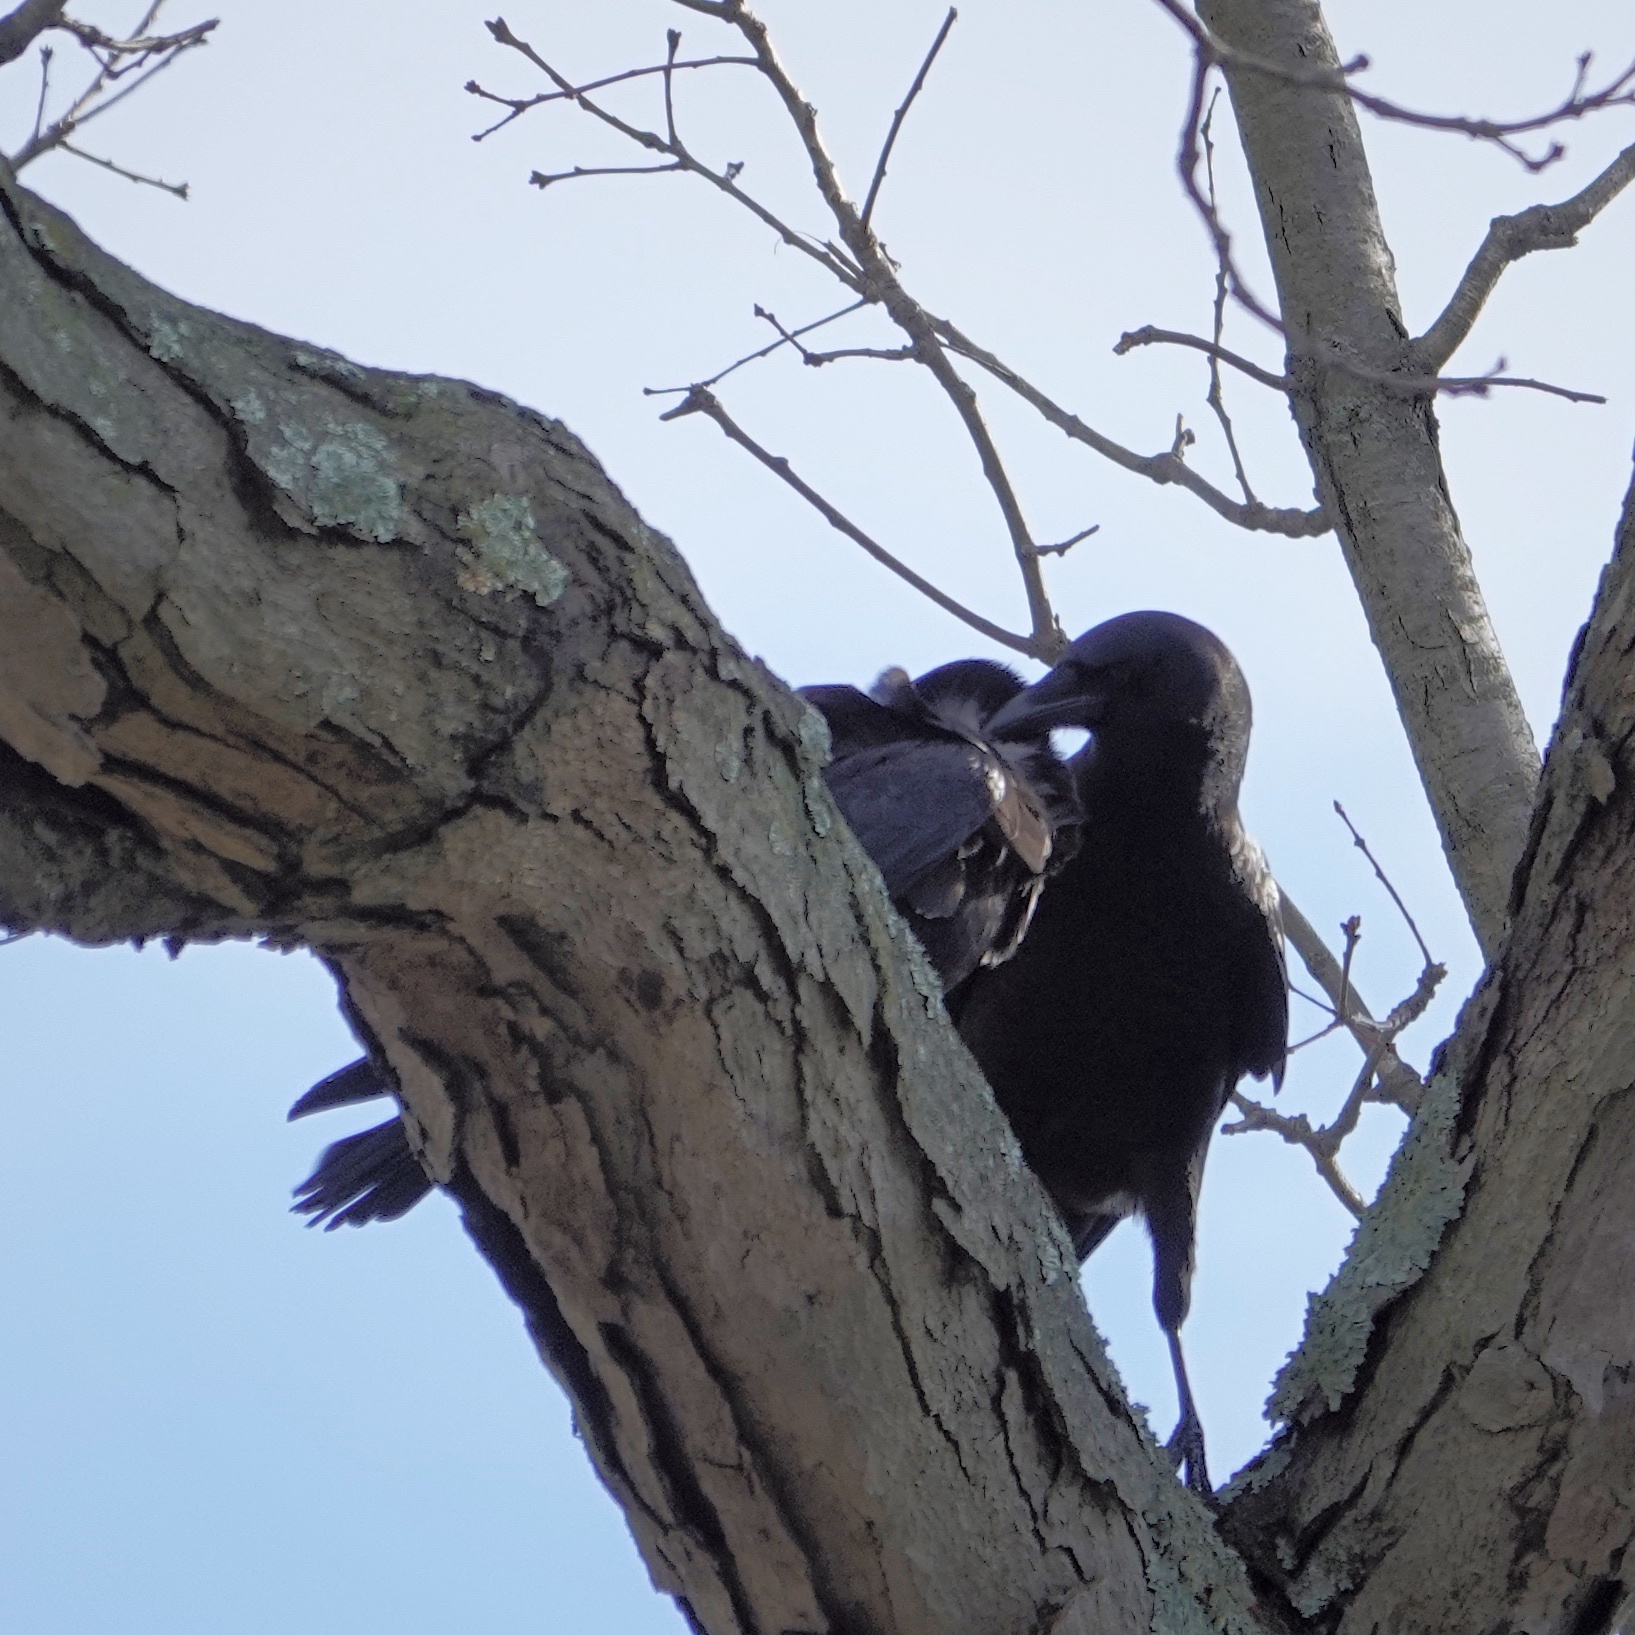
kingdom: Animalia
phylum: Chordata
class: Aves
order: Passeriformes
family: Corvidae
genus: Corvus
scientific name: Corvus brachyrhynchos
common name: American crow
